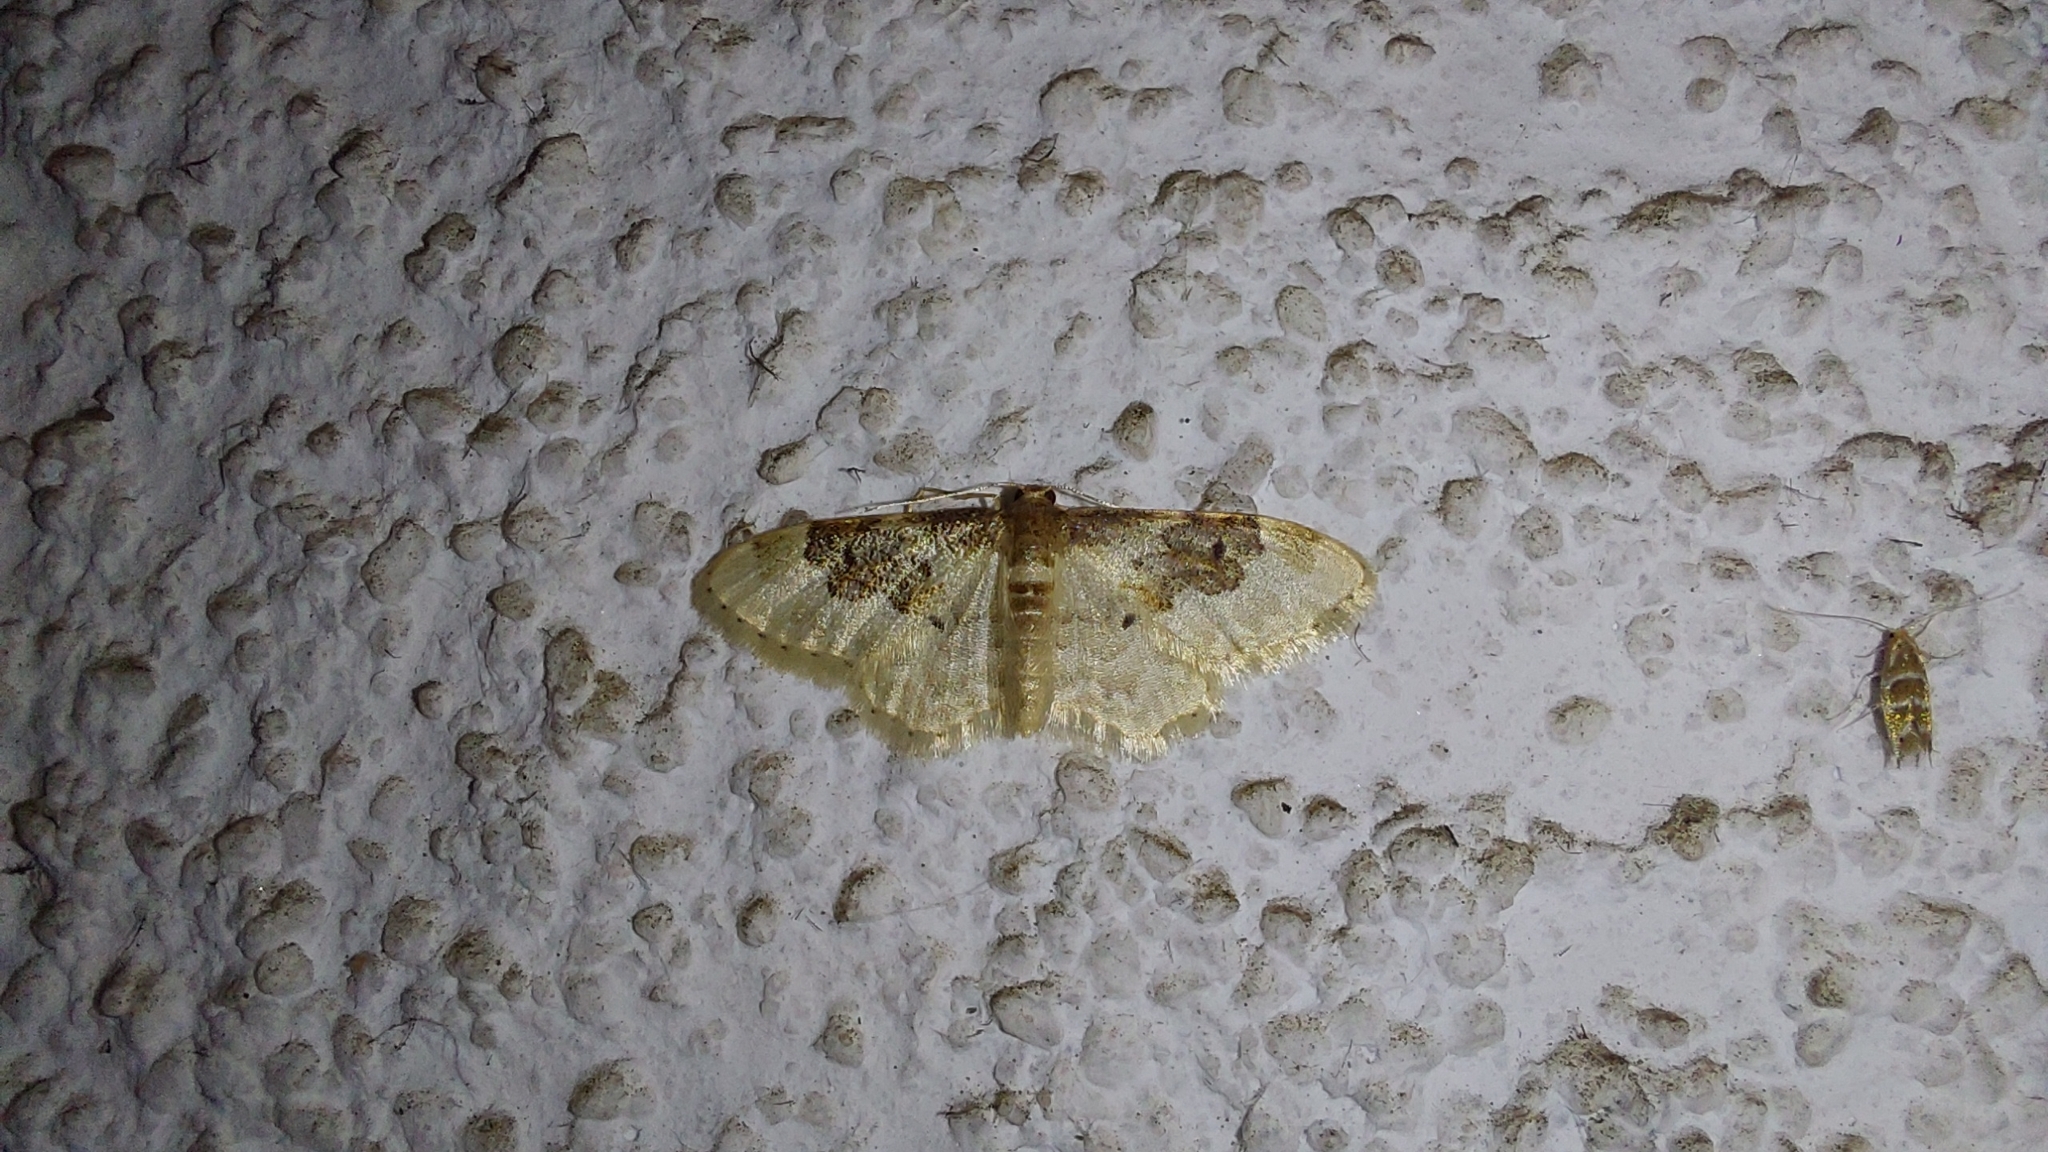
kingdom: Animalia
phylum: Arthropoda
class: Insecta
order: Lepidoptera
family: Geometridae
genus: Idaea
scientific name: Idaea rusticata
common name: Least carpet
